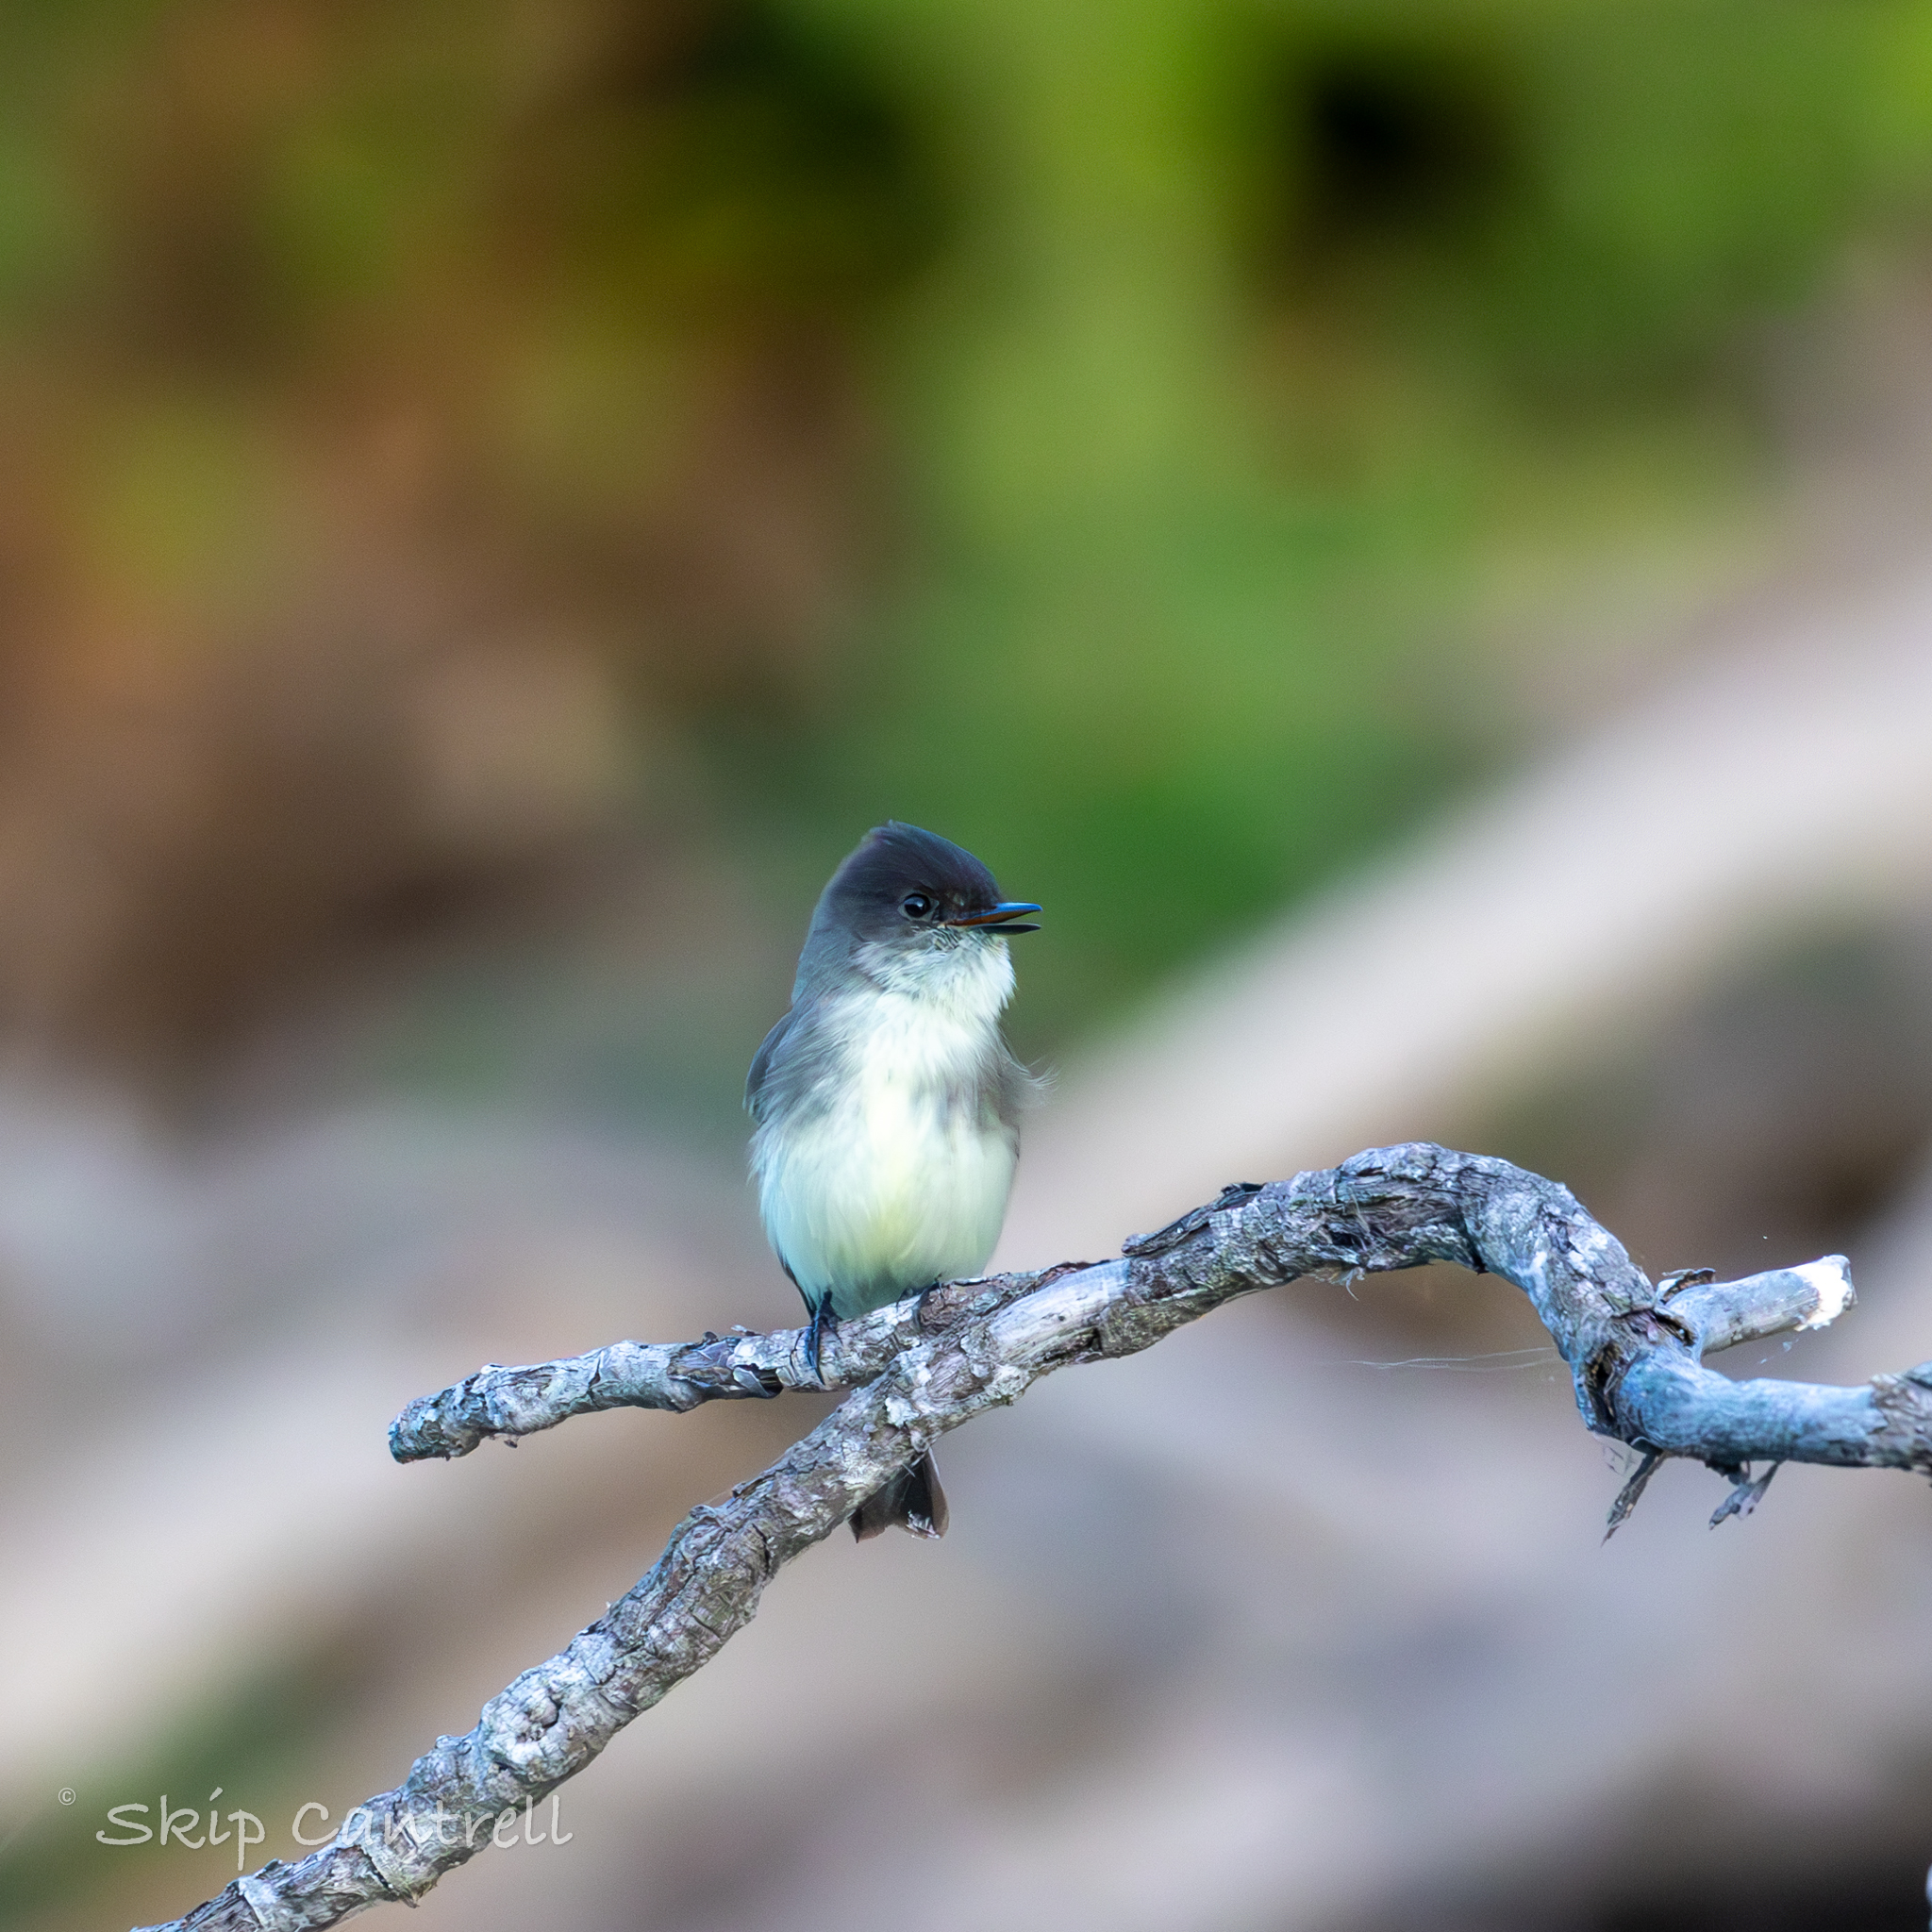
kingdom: Animalia
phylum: Chordata
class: Aves
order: Passeriformes
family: Tyrannidae
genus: Sayornis
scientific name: Sayornis phoebe
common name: Eastern phoebe
